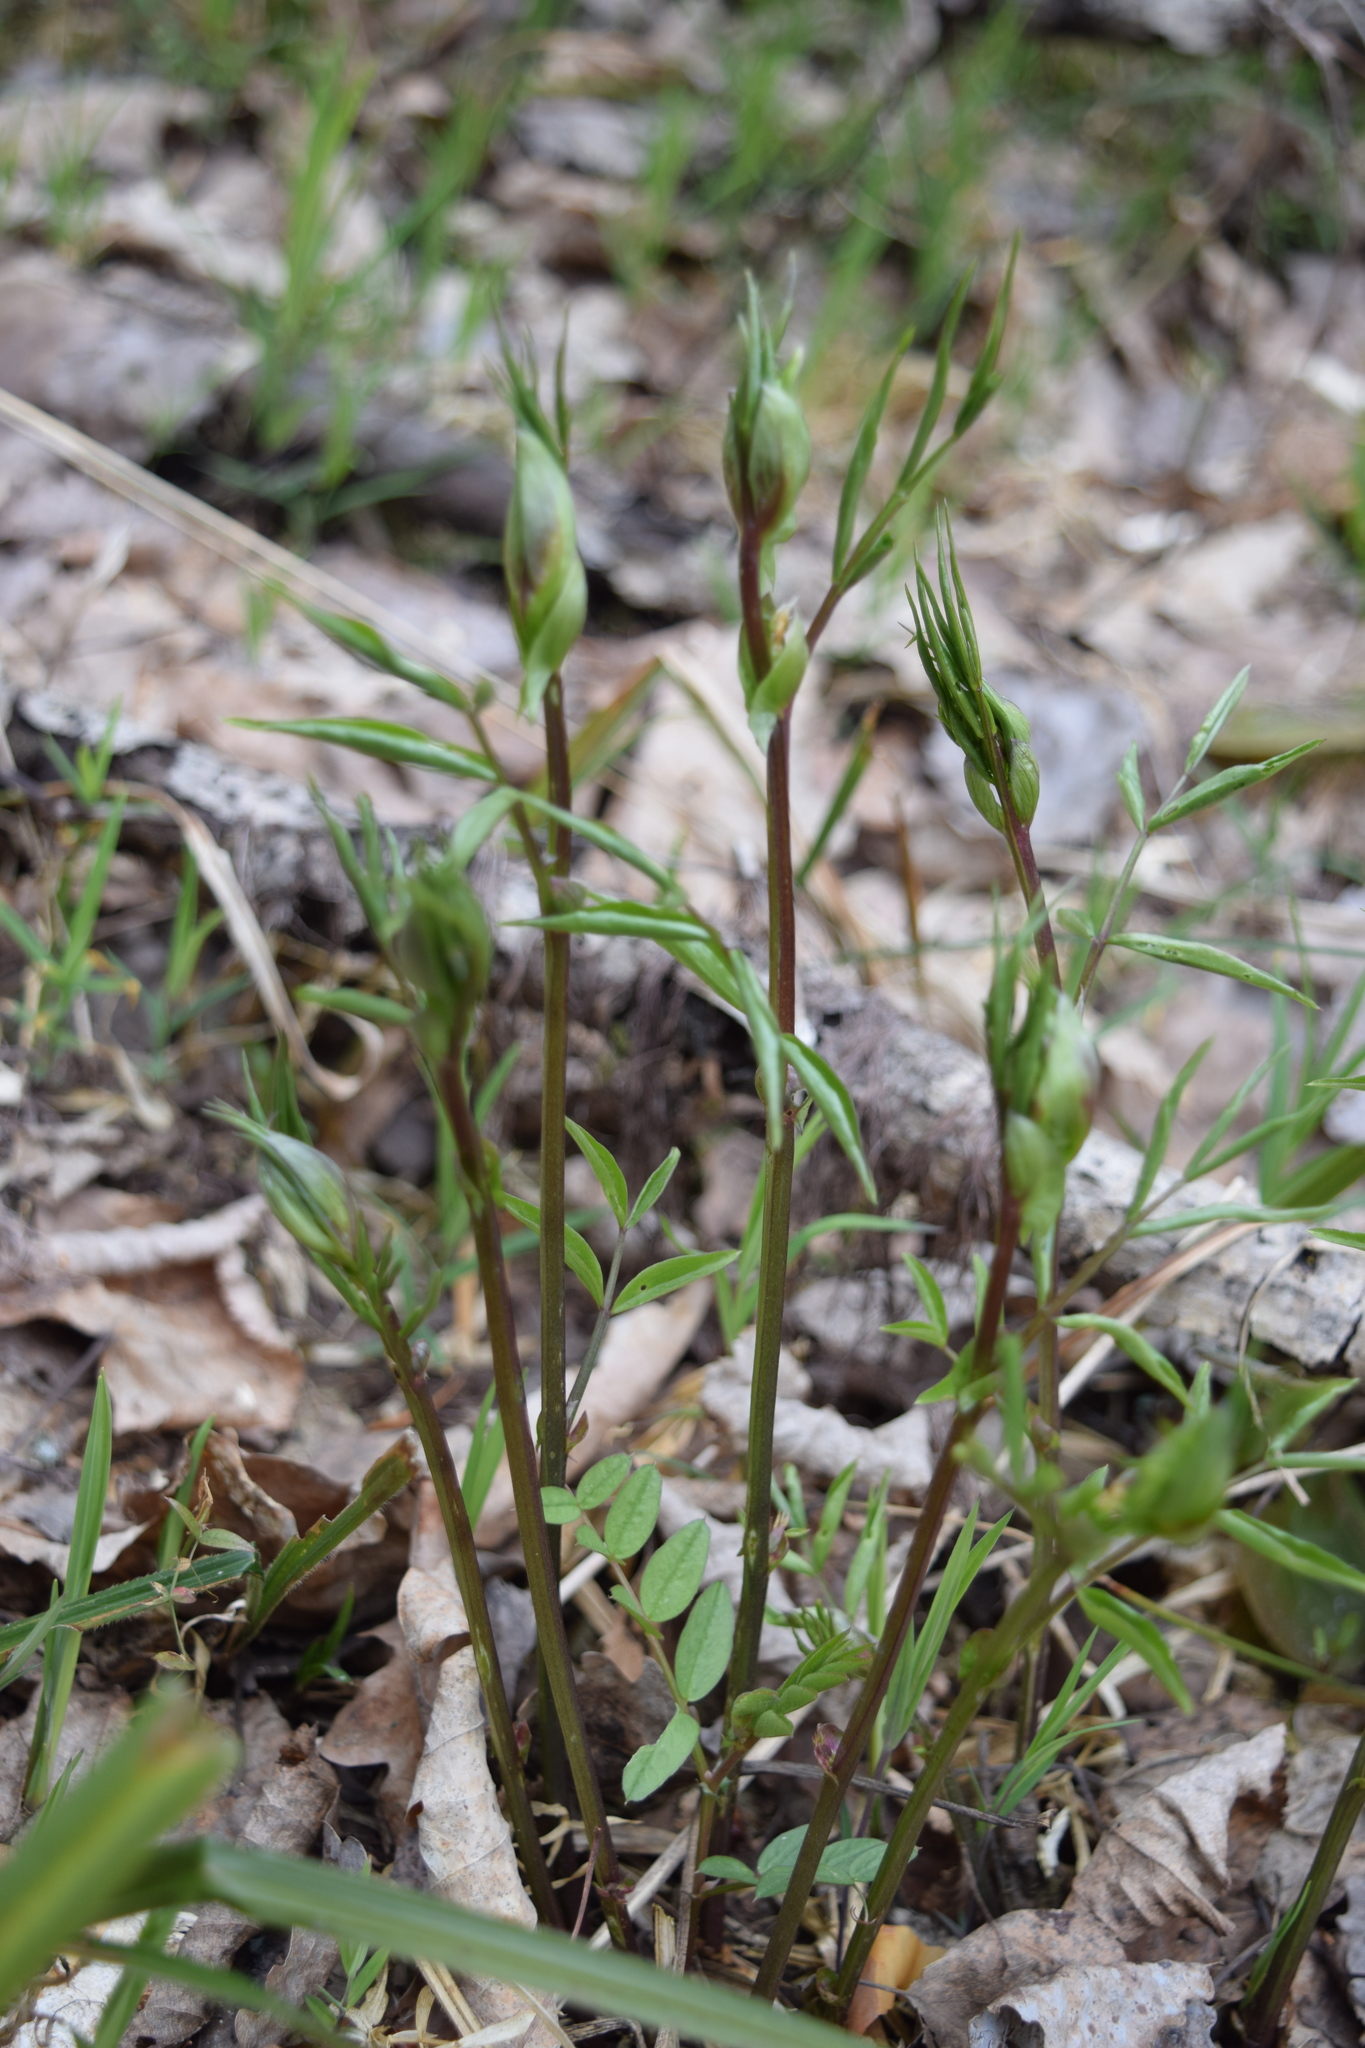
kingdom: Plantae
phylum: Tracheophyta
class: Magnoliopsida
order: Fabales
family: Fabaceae
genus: Lathyrus
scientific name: Lathyrus vernus
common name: Spring pea
